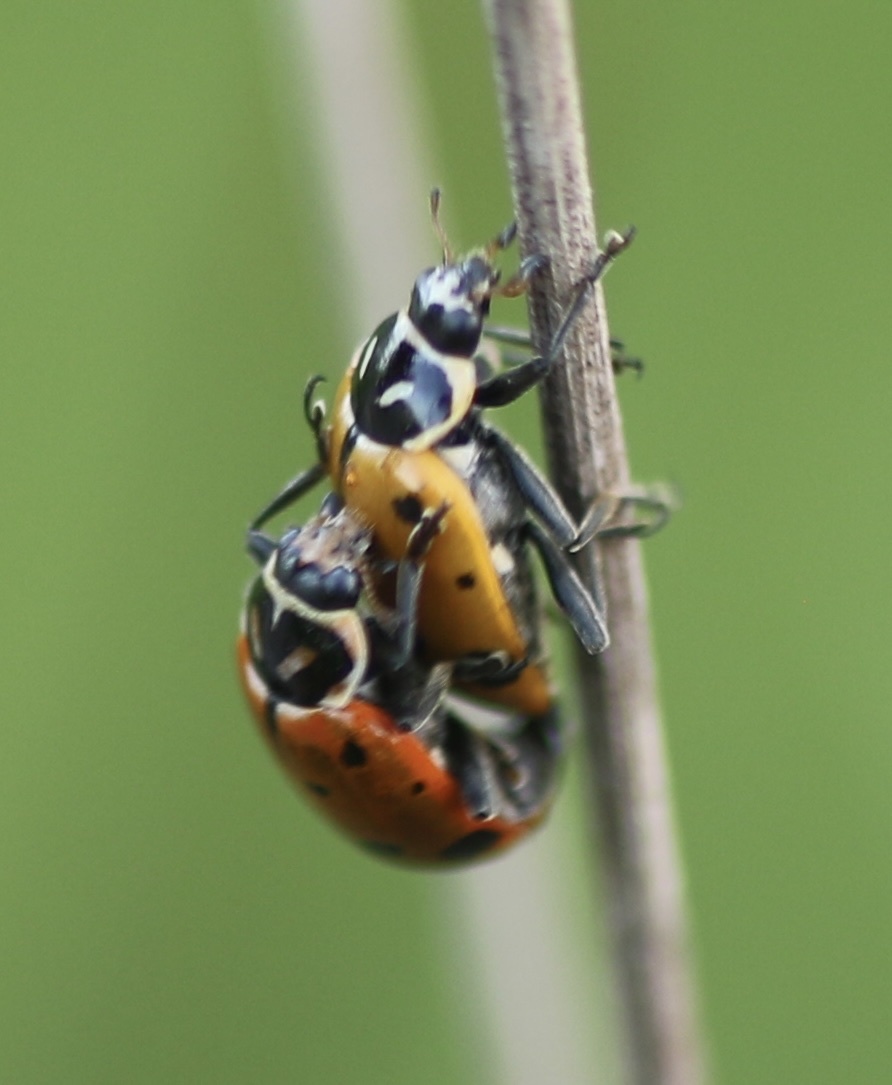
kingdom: Animalia
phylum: Arthropoda
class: Insecta
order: Coleoptera
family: Coccinellidae
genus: Hippodamia
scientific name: Hippodamia convergens
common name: Convergent lady beetle
